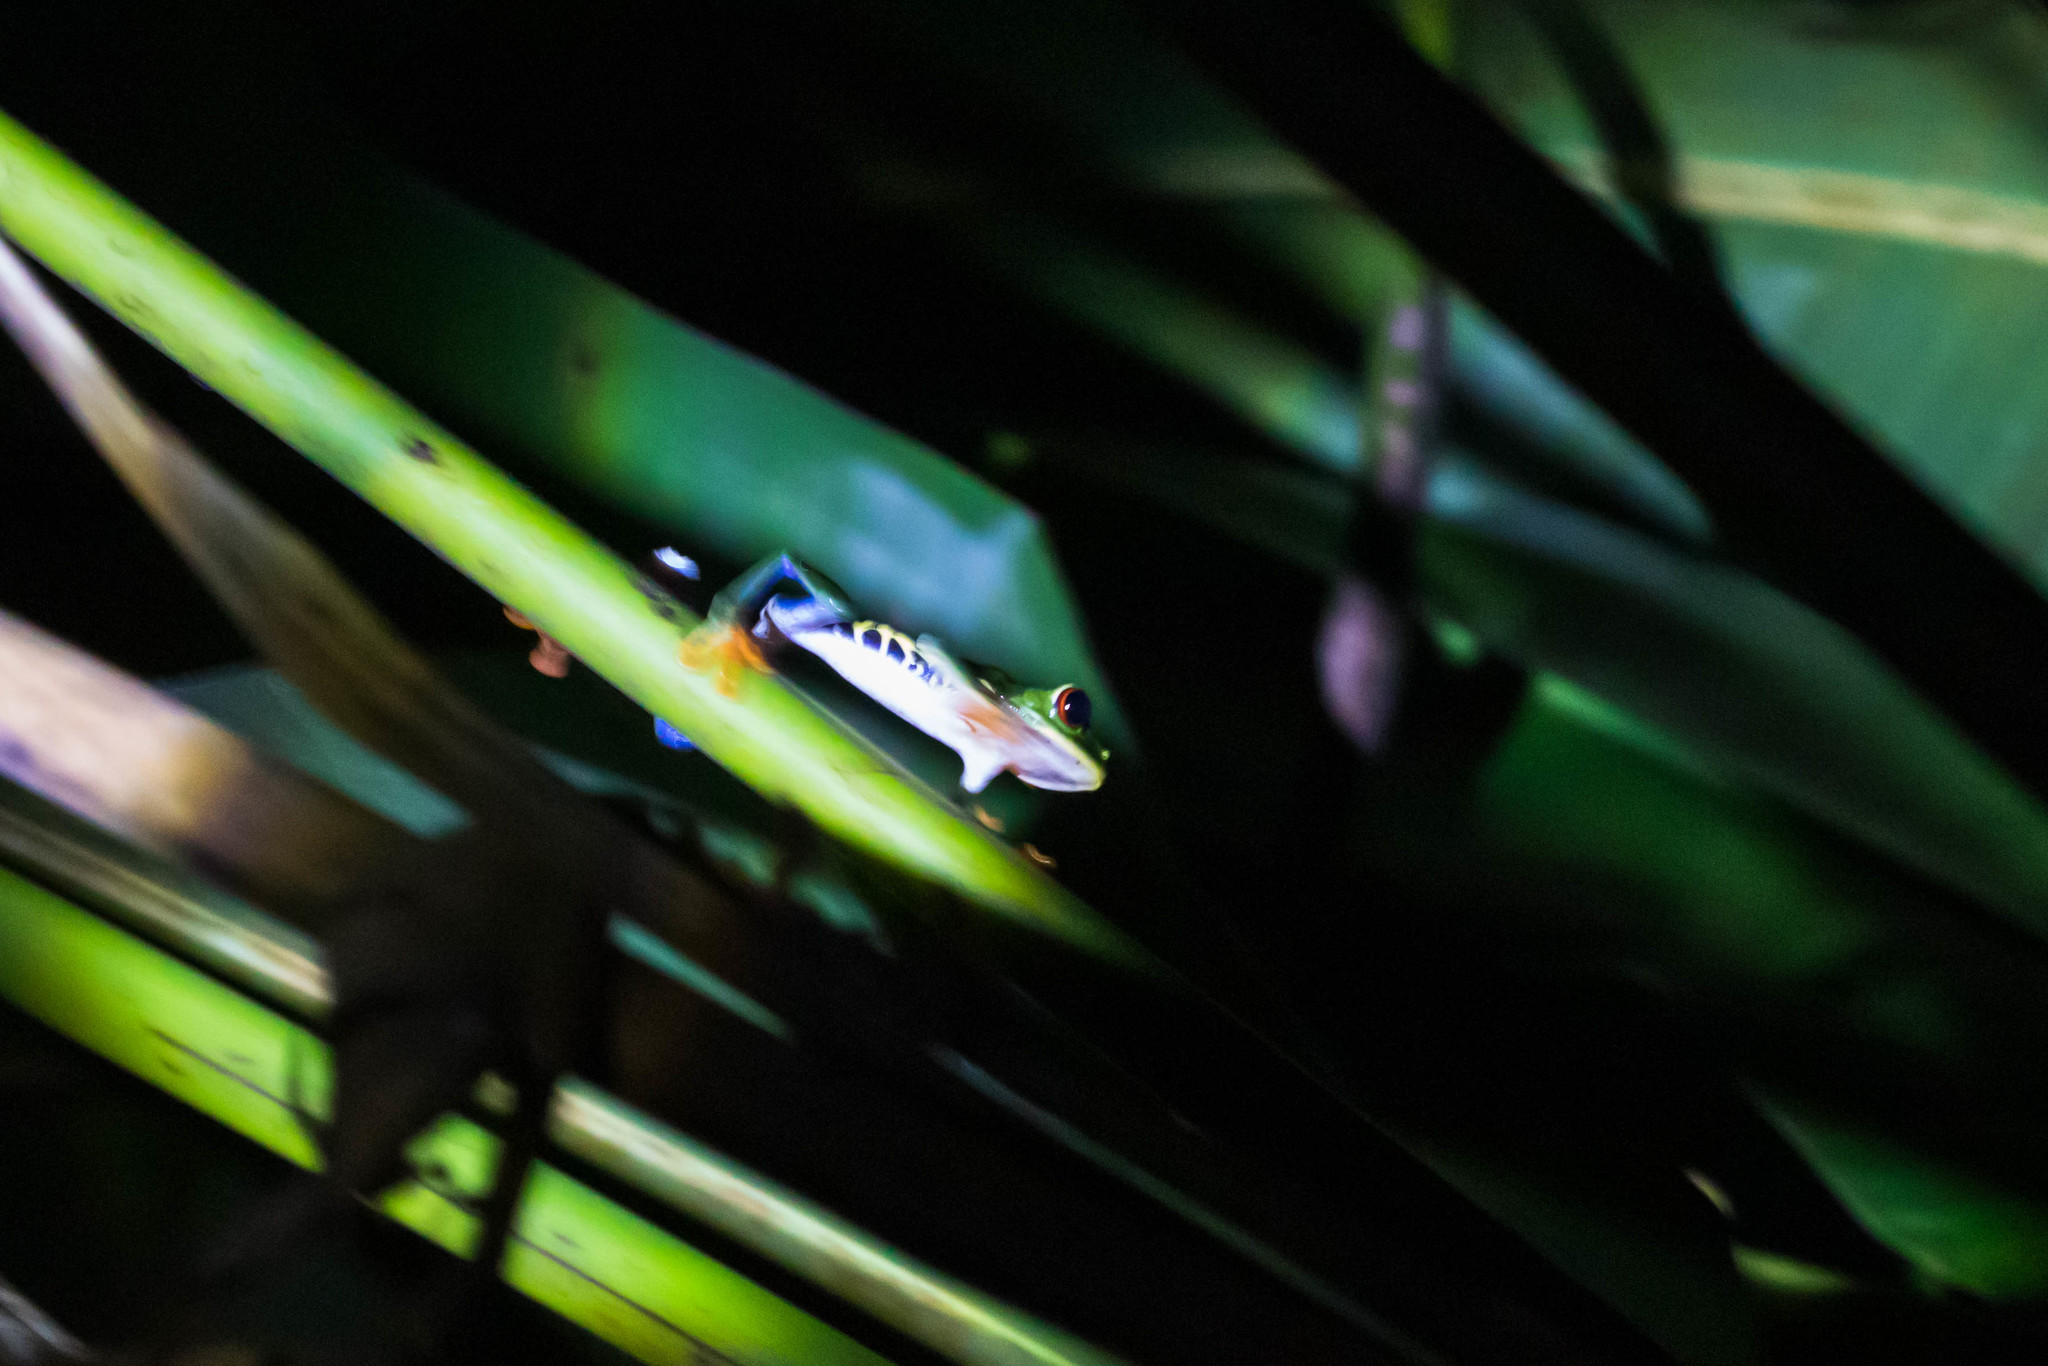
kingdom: Animalia
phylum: Chordata
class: Amphibia
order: Anura
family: Phyllomedusidae
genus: Agalychnis
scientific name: Agalychnis callidryas
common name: Red-eyed treefrog
